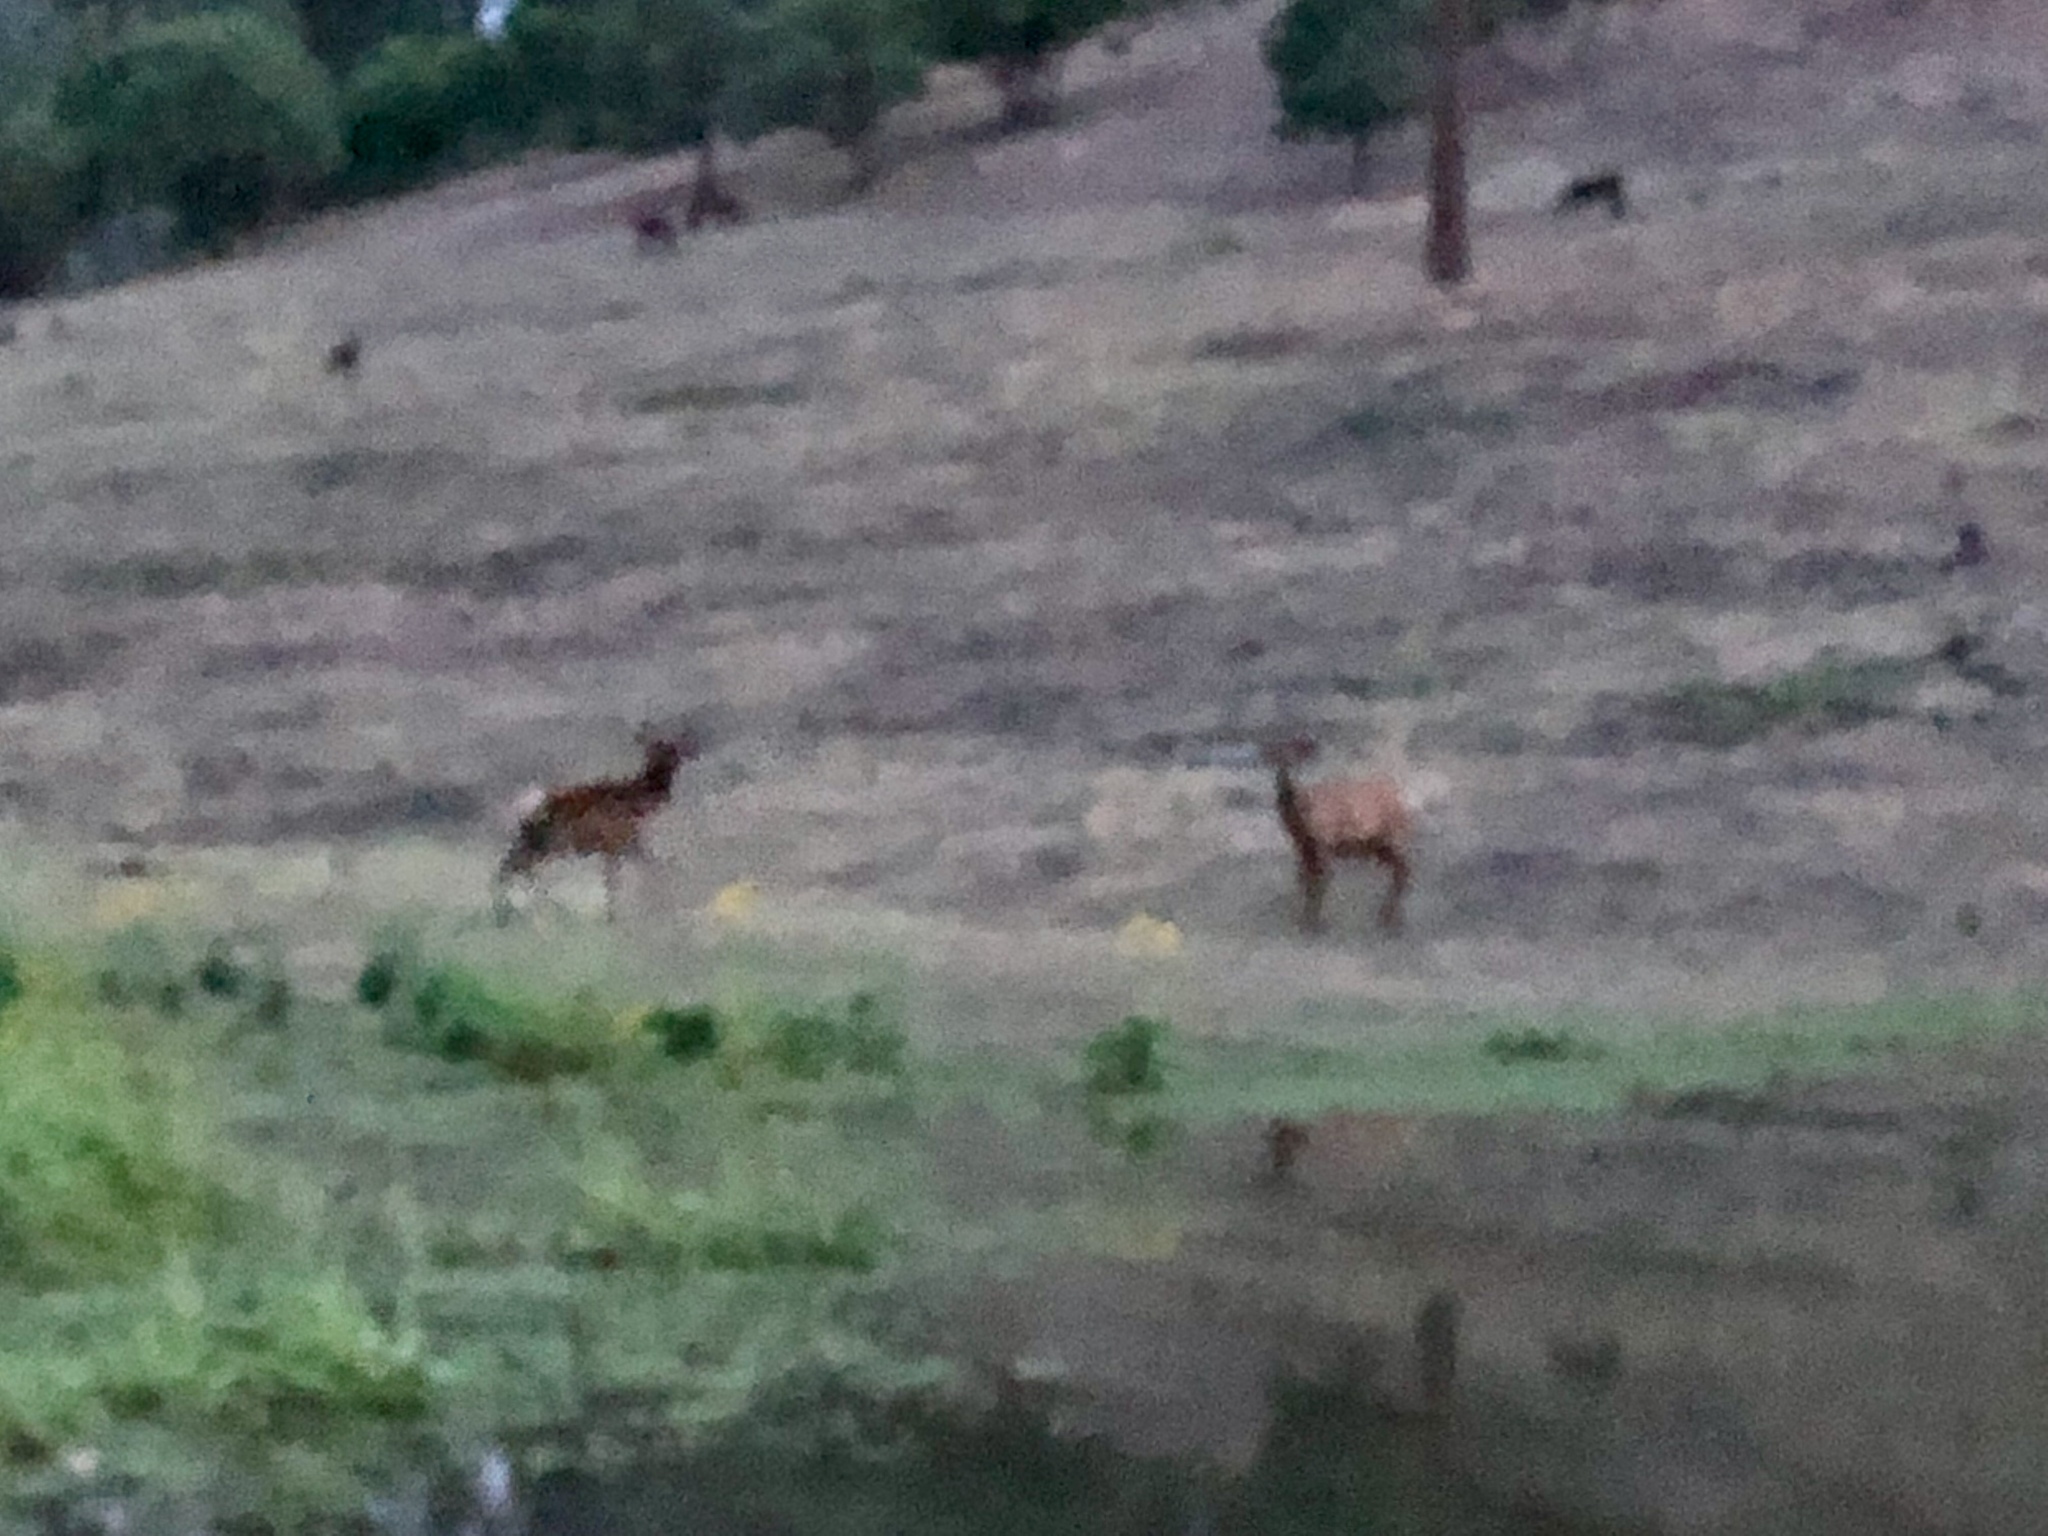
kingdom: Animalia
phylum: Chordata
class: Mammalia
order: Artiodactyla
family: Cervidae
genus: Cervus
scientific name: Cervus elaphus
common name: Red deer
